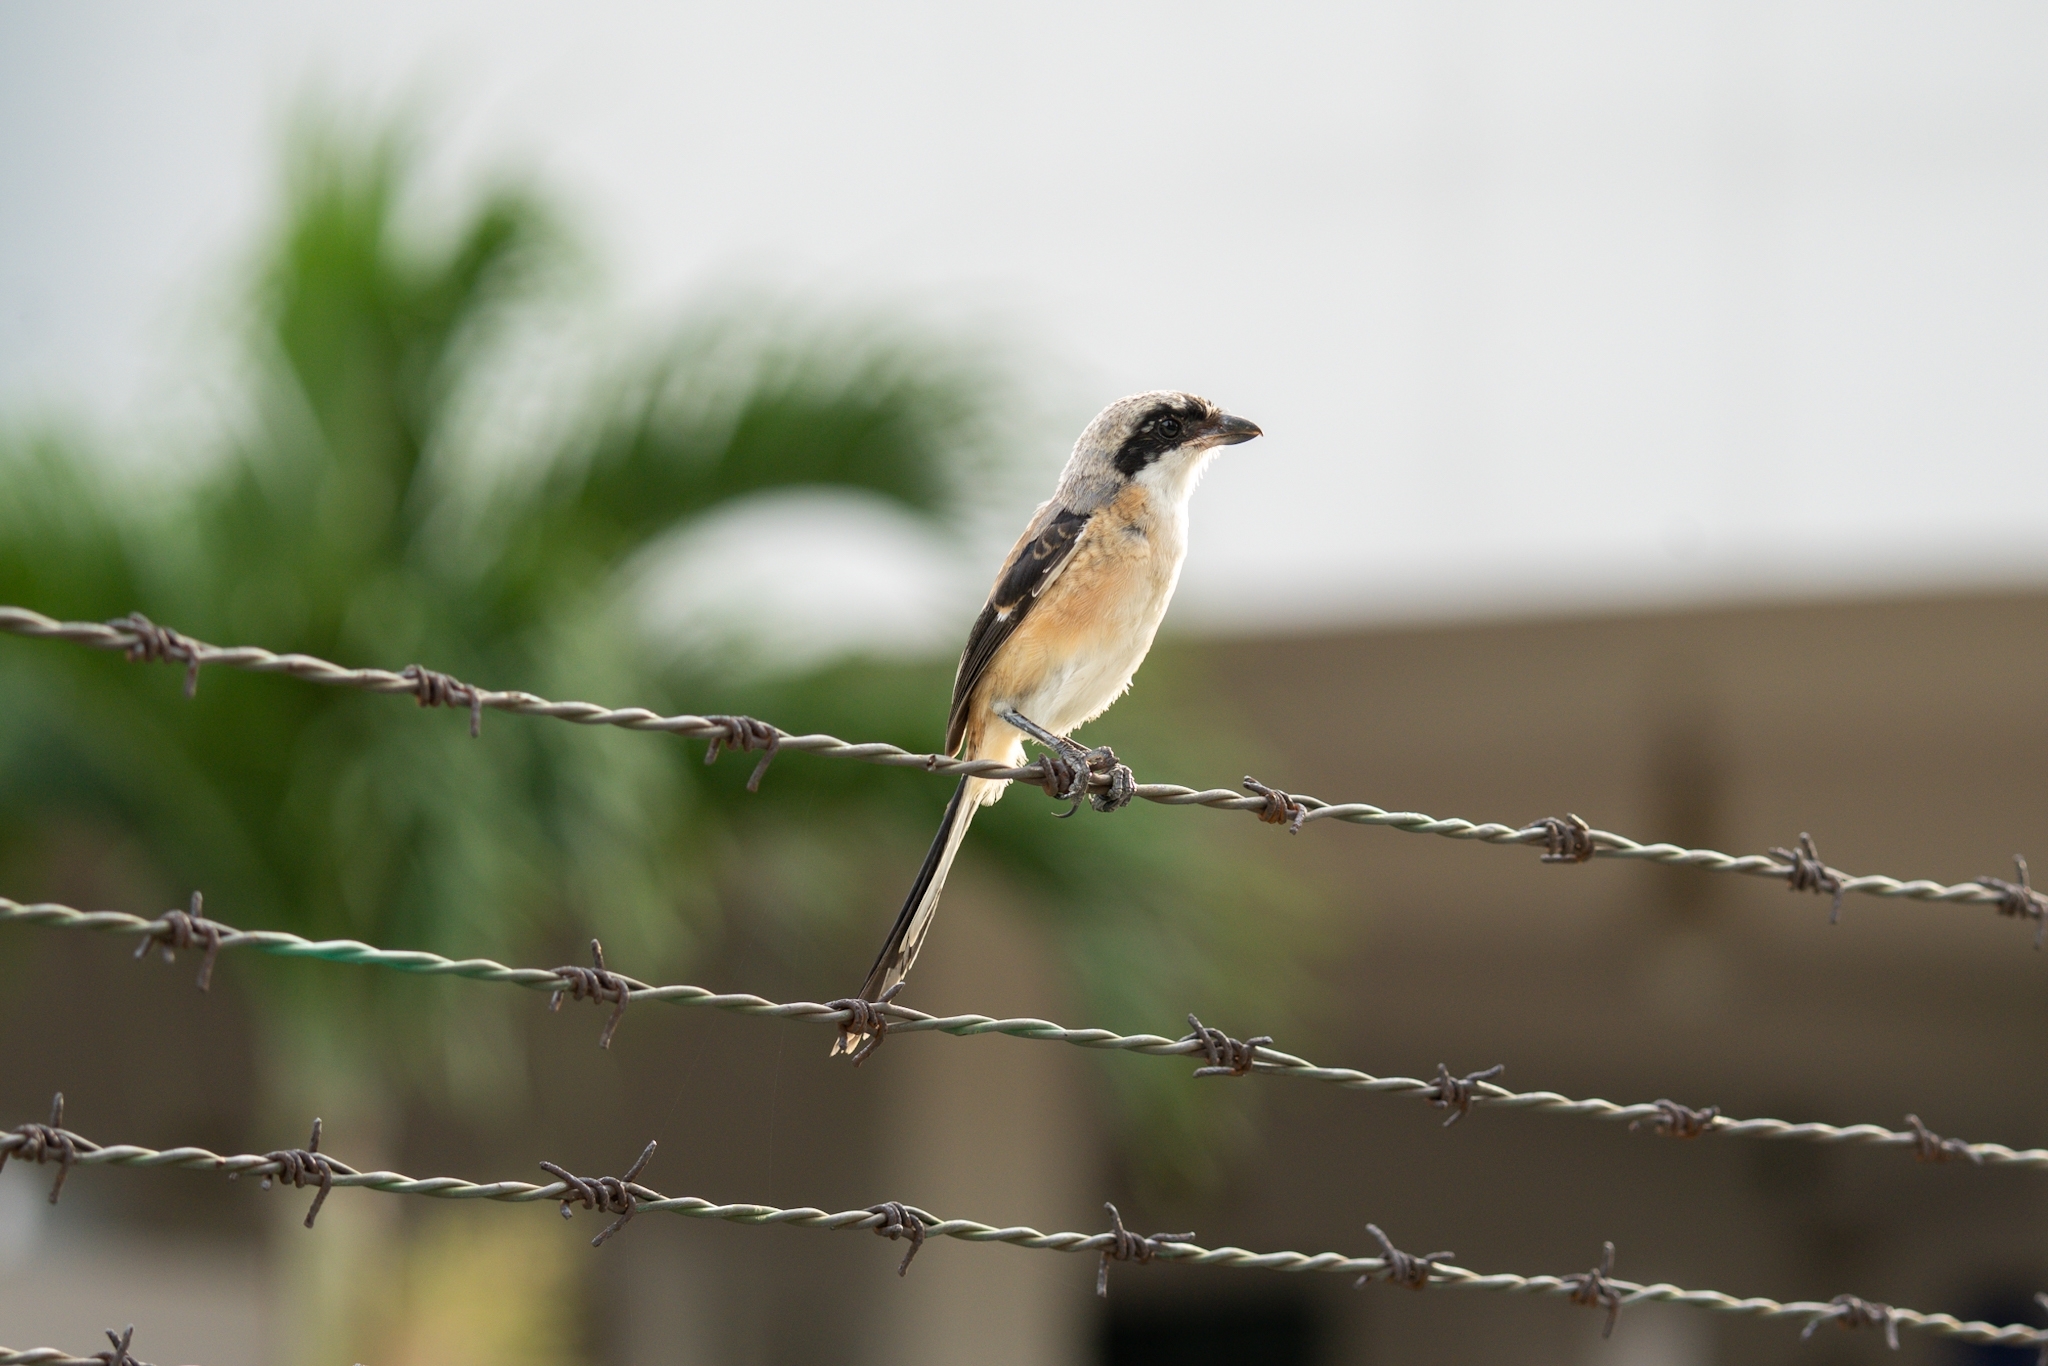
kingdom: Animalia
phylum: Chordata
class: Aves
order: Passeriformes
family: Laniidae
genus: Lanius
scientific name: Lanius schach
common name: Long-tailed shrike
